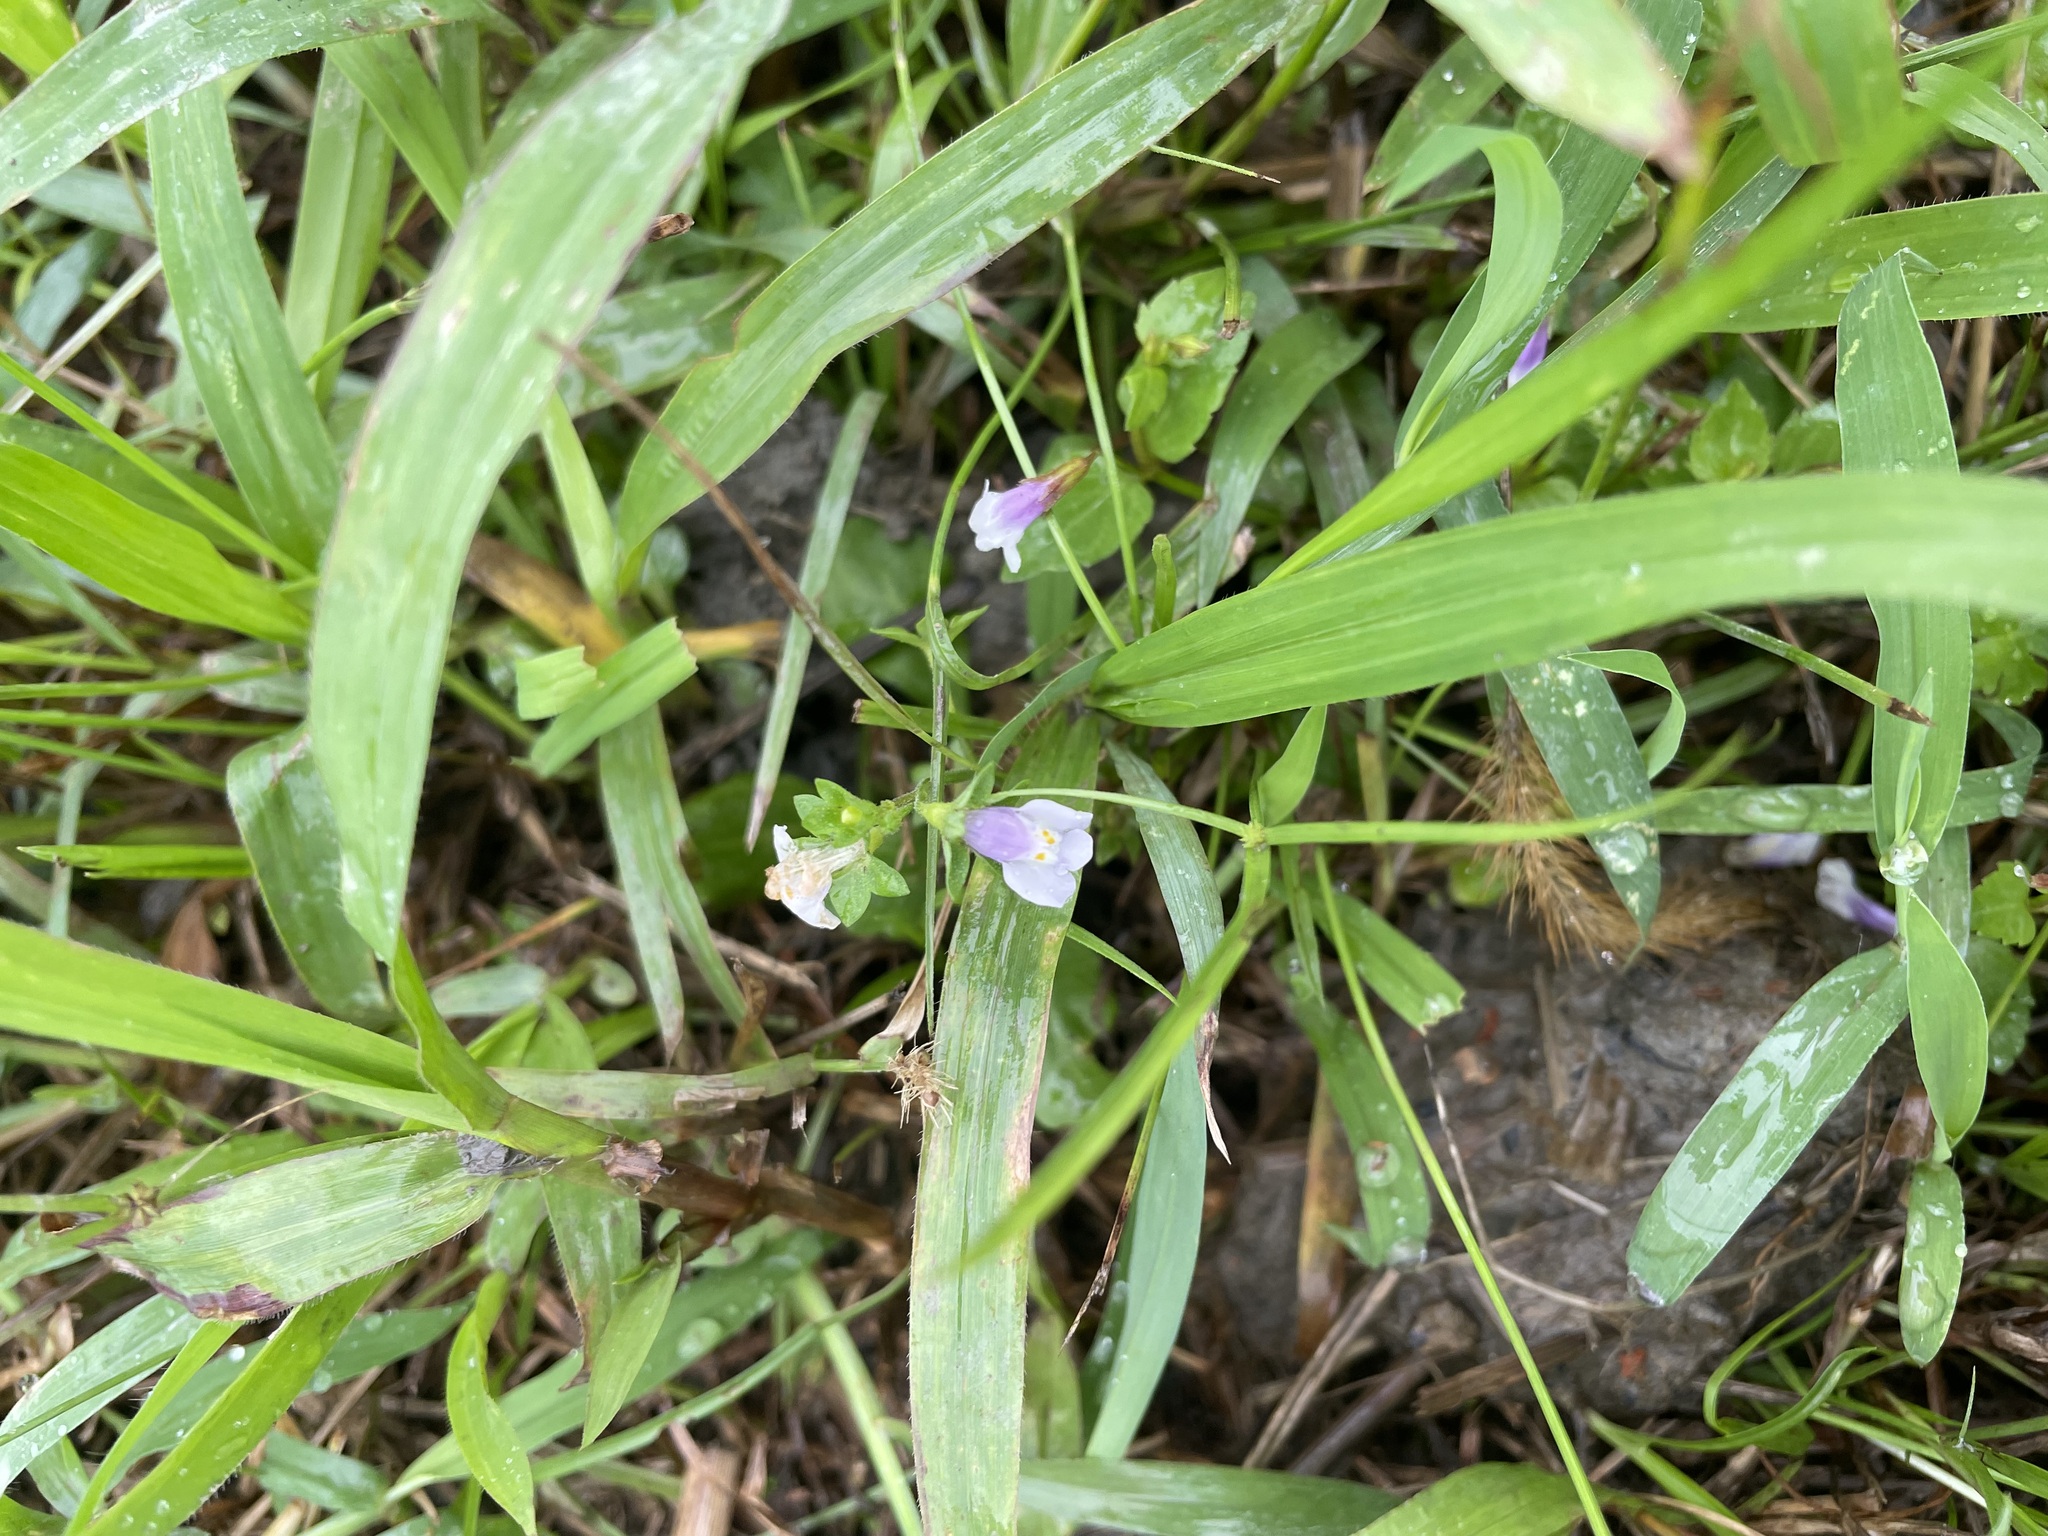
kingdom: Plantae
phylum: Tracheophyta
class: Magnoliopsida
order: Lamiales
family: Mazaceae
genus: Mazus
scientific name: Mazus pumilus
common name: Japanese mazus
